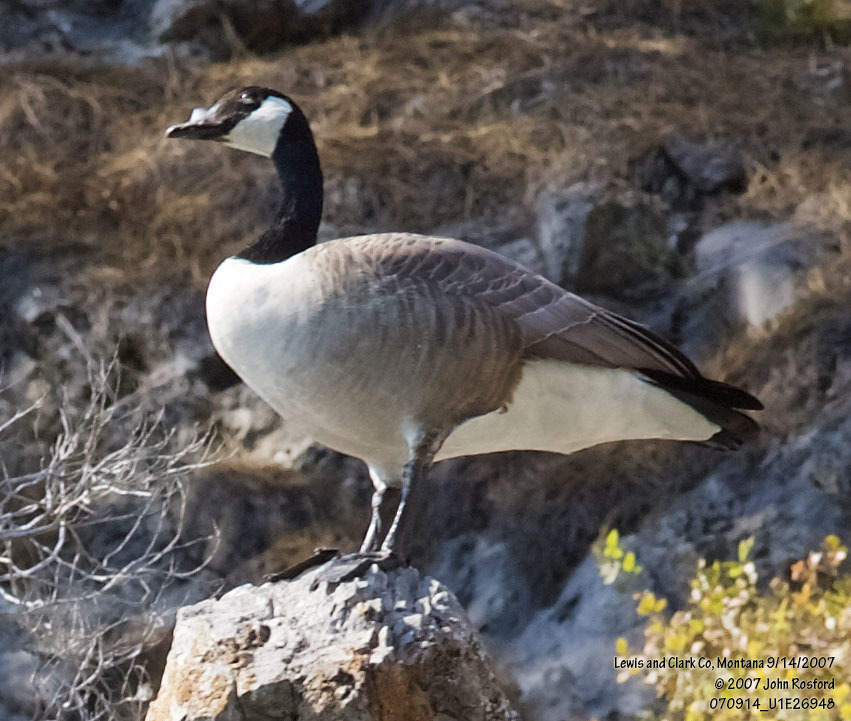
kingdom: Animalia
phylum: Chordata
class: Aves
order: Anseriformes
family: Anatidae
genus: Branta
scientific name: Branta canadensis
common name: Canada goose
